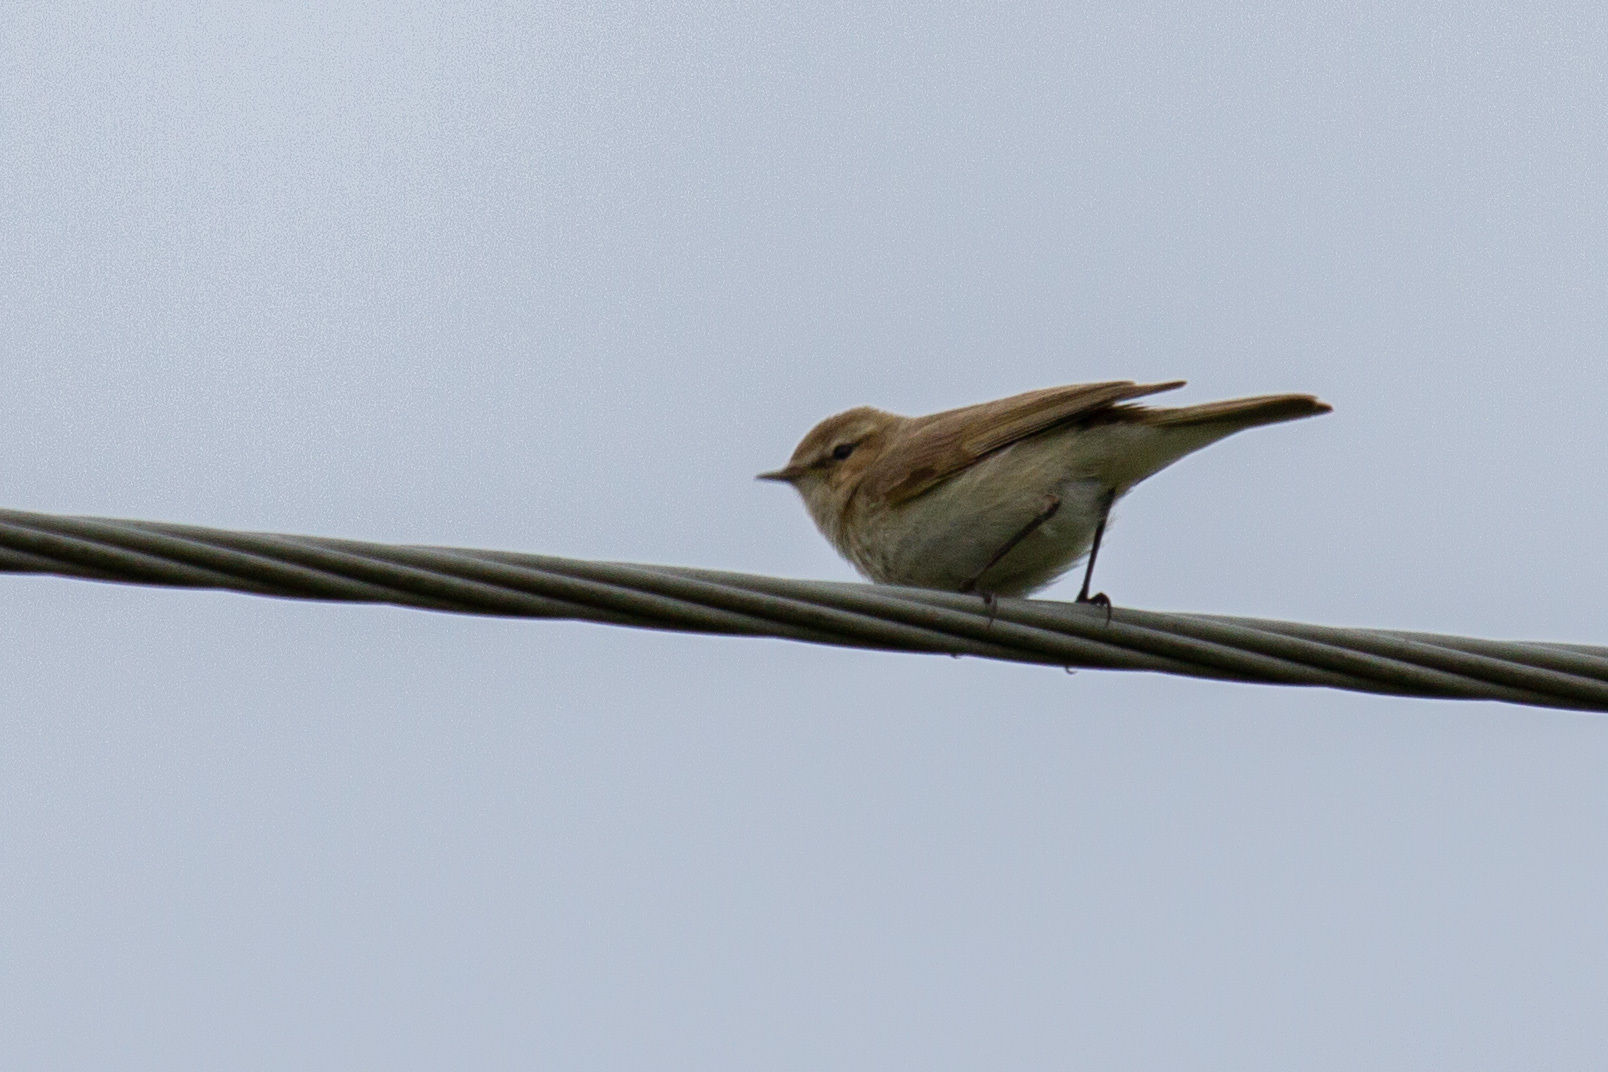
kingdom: Animalia
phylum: Chordata
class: Aves
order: Passeriformes
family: Phylloscopidae
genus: Phylloscopus
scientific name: Phylloscopus collybita
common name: Common chiffchaff
